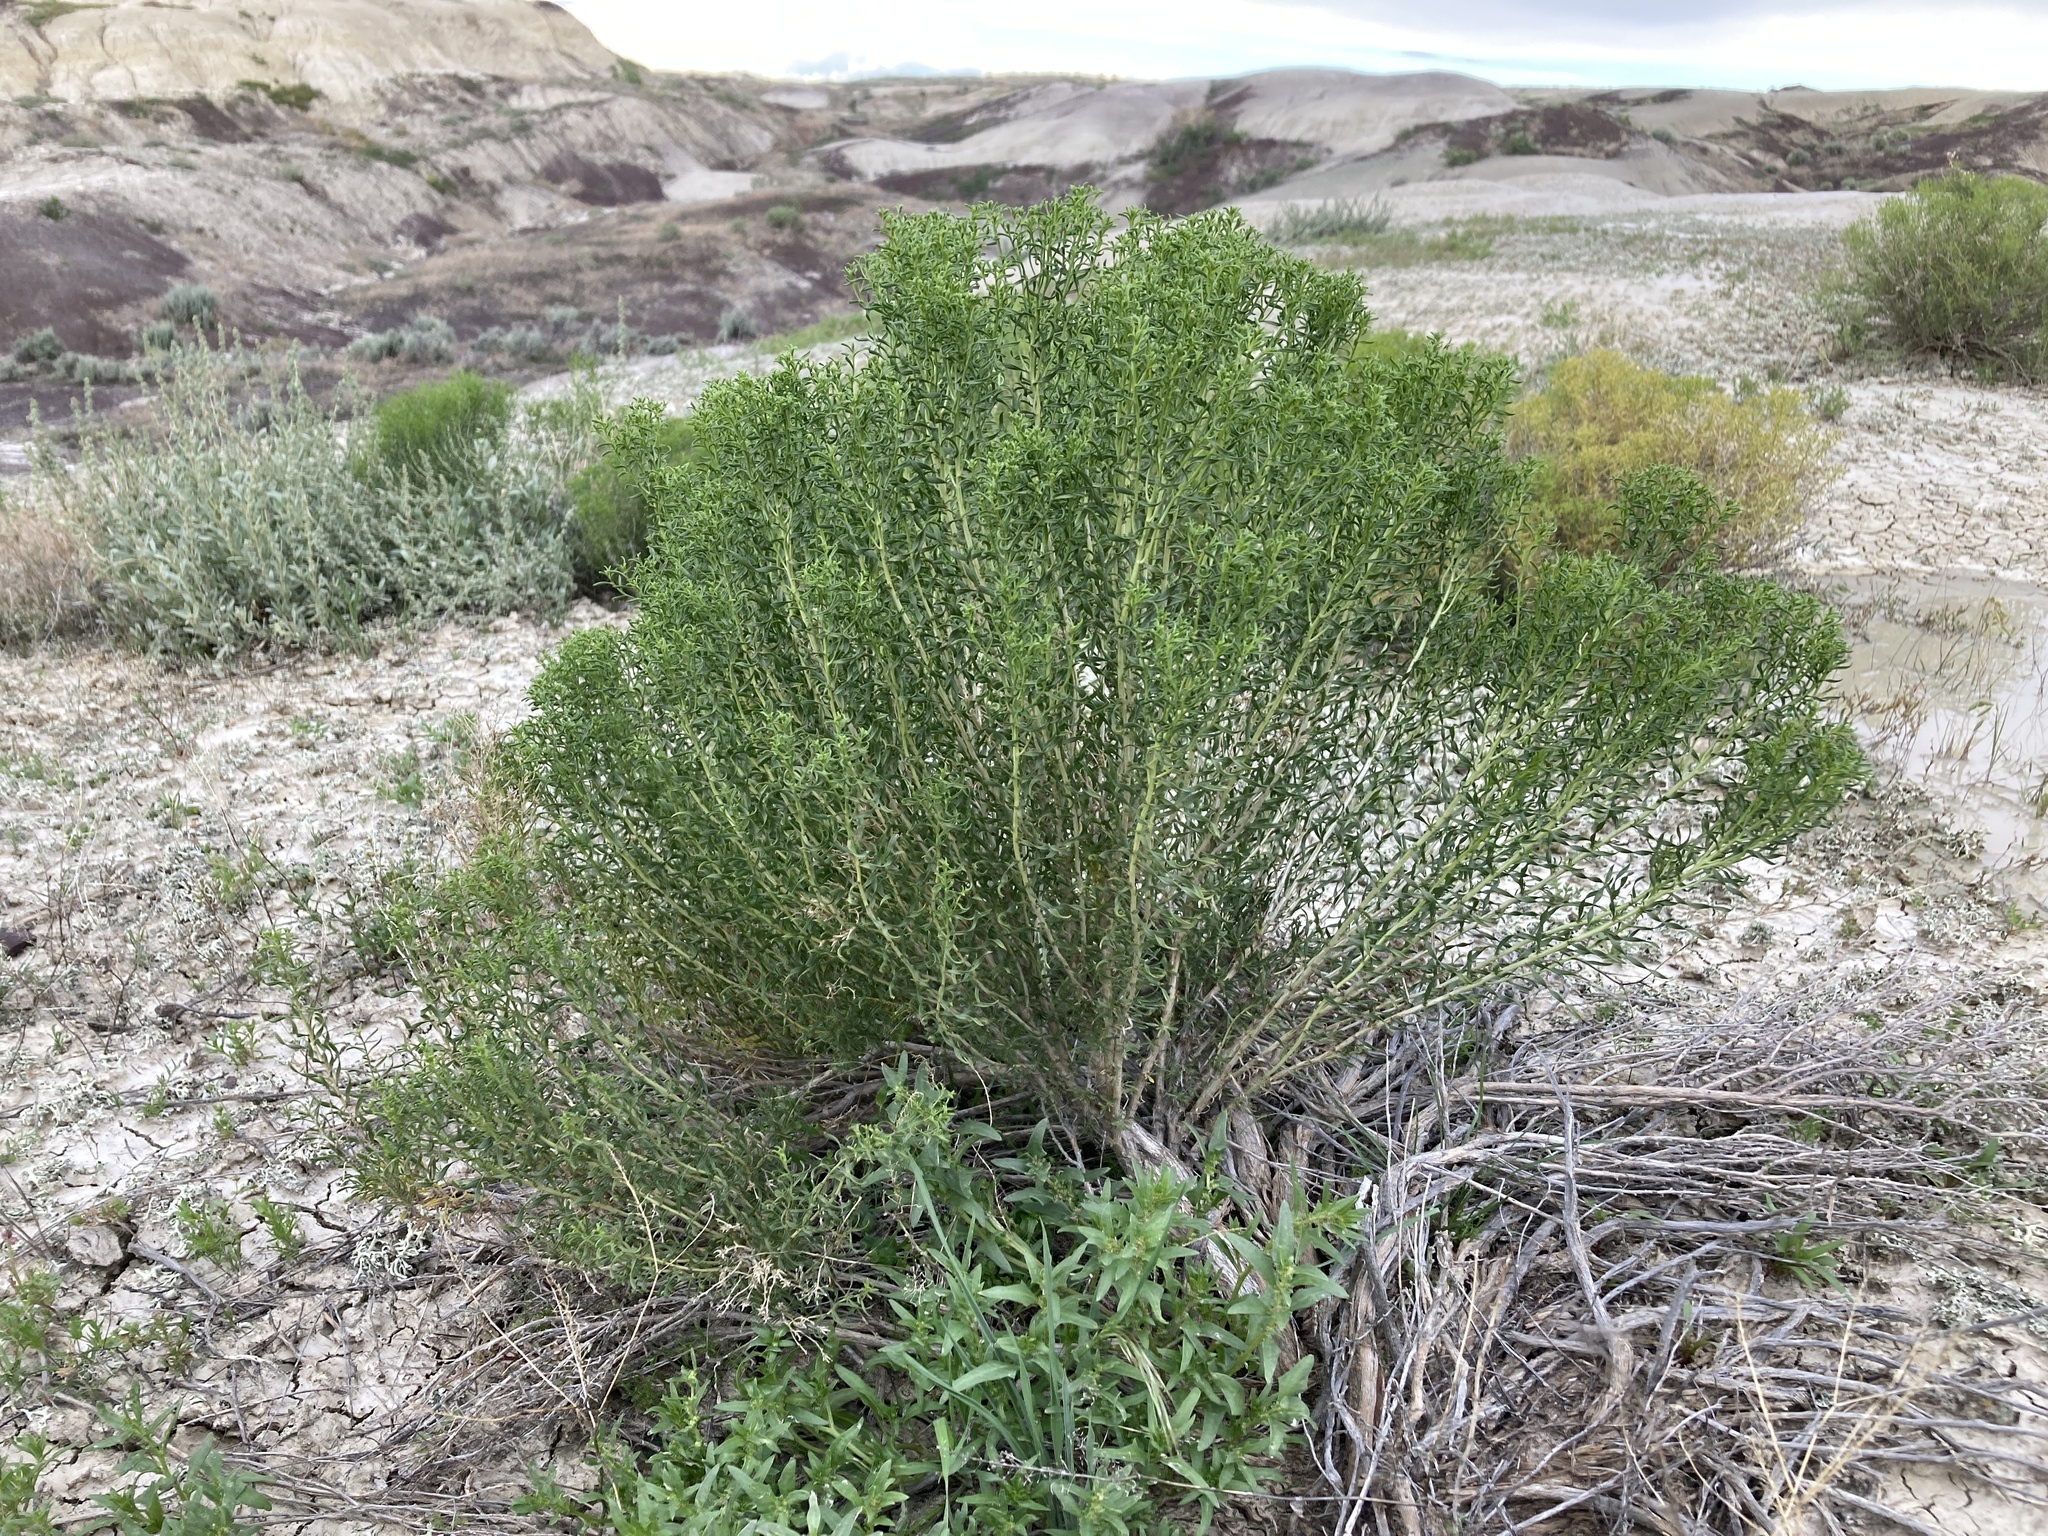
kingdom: Plantae
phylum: Tracheophyta
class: Magnoliopsida
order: Asterales
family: Asteraceae
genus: Chrysothamnus
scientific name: Chrysothamnus viscidiflorus
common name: Yellow rabbitbrush
